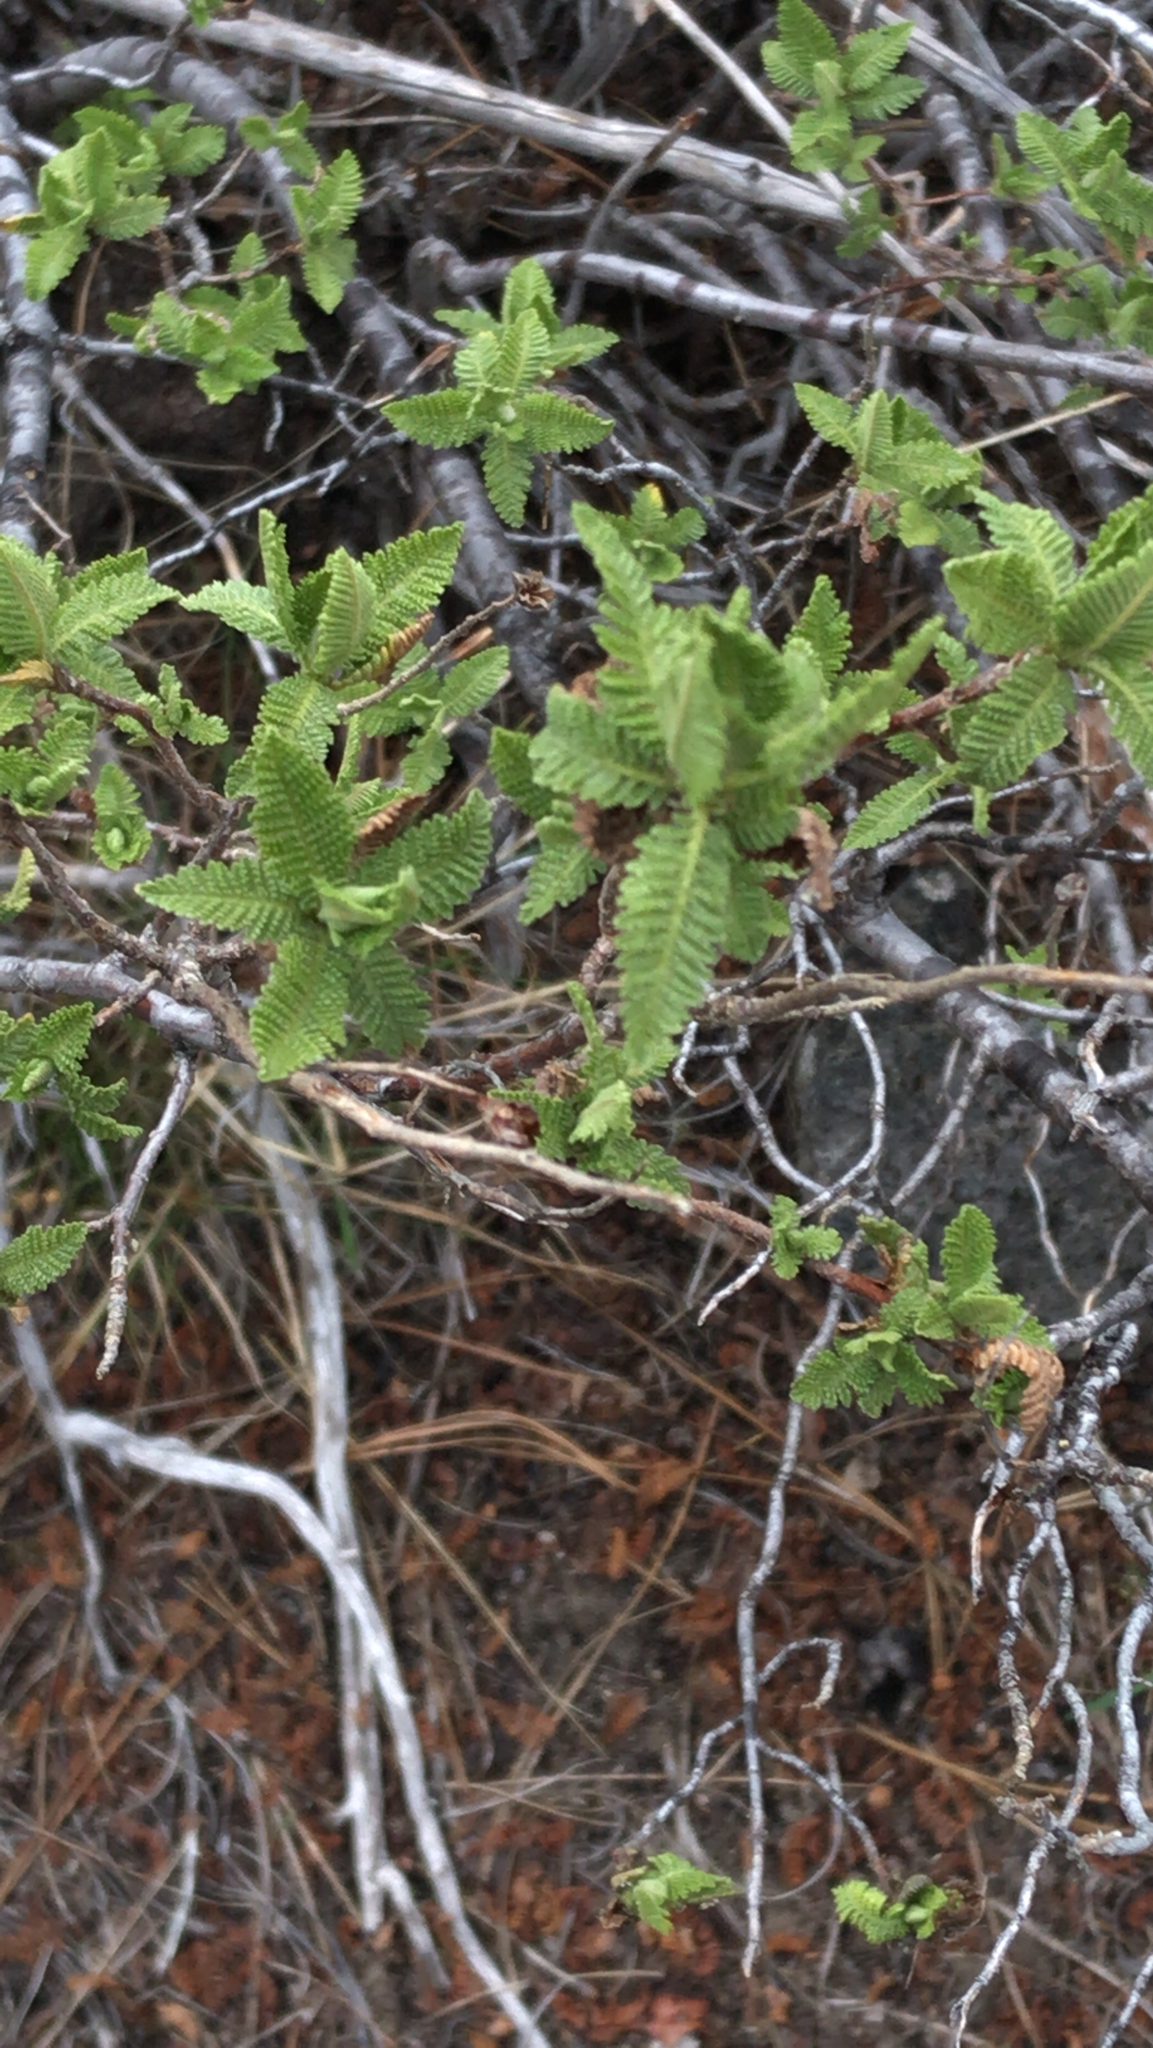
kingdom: Plantae
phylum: Tracheophyta
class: Magnoliopsida
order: Rosales
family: Rosaceae
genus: Chamaebatiaria
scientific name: Chamaebatiaria millefolium
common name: Fernbush
